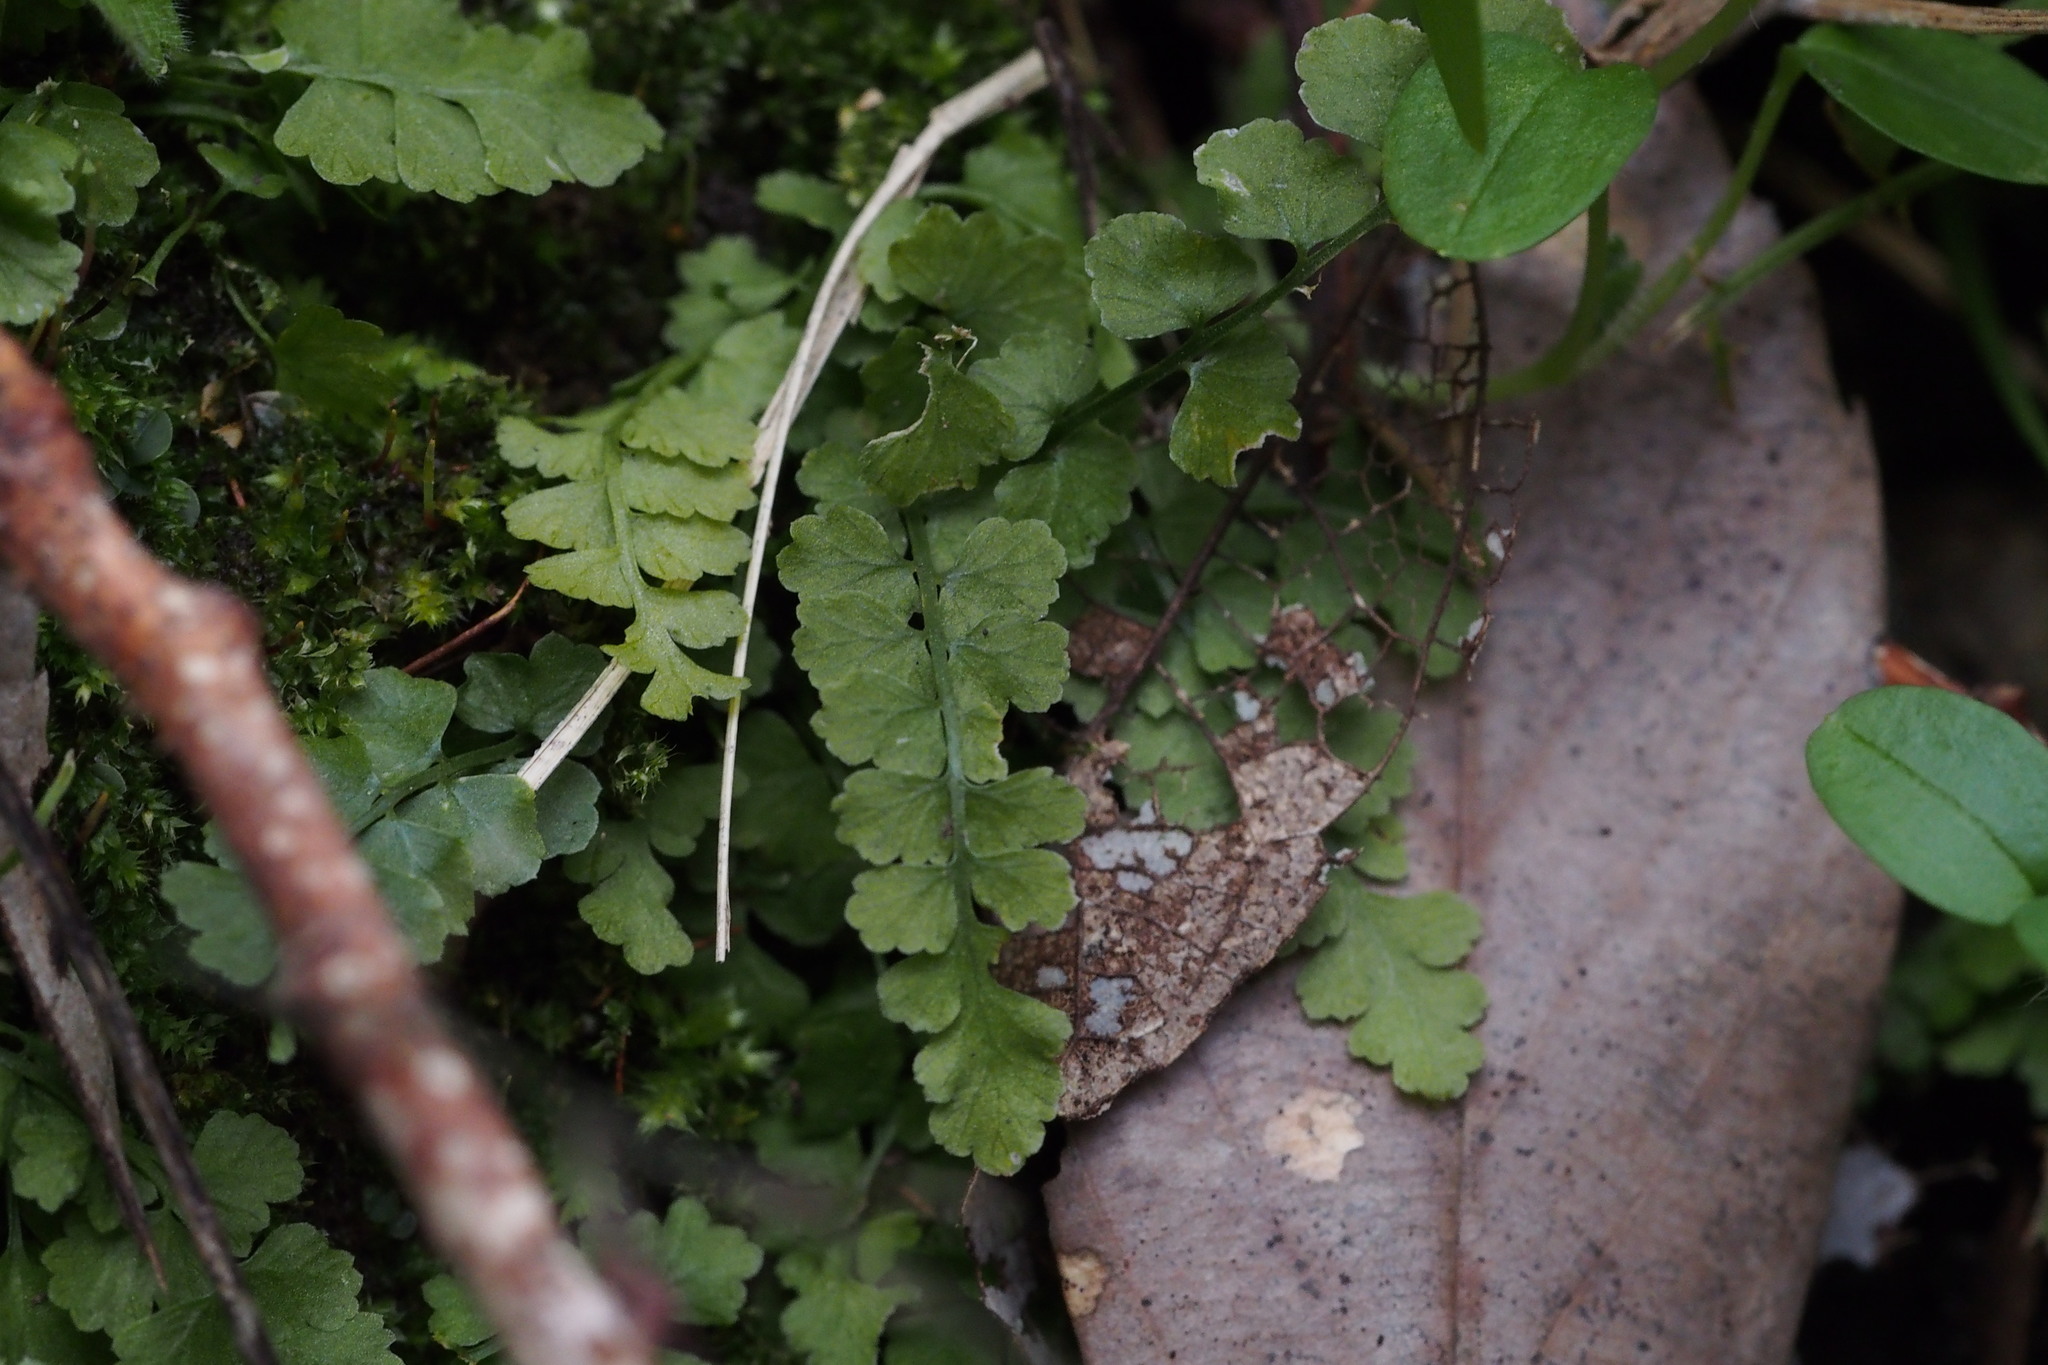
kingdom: Plantae
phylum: Tracheophyta
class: Polypodiopsida
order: Polypodiales
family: Aspleniaceae
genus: Asplenium
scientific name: Asplenium incisum
